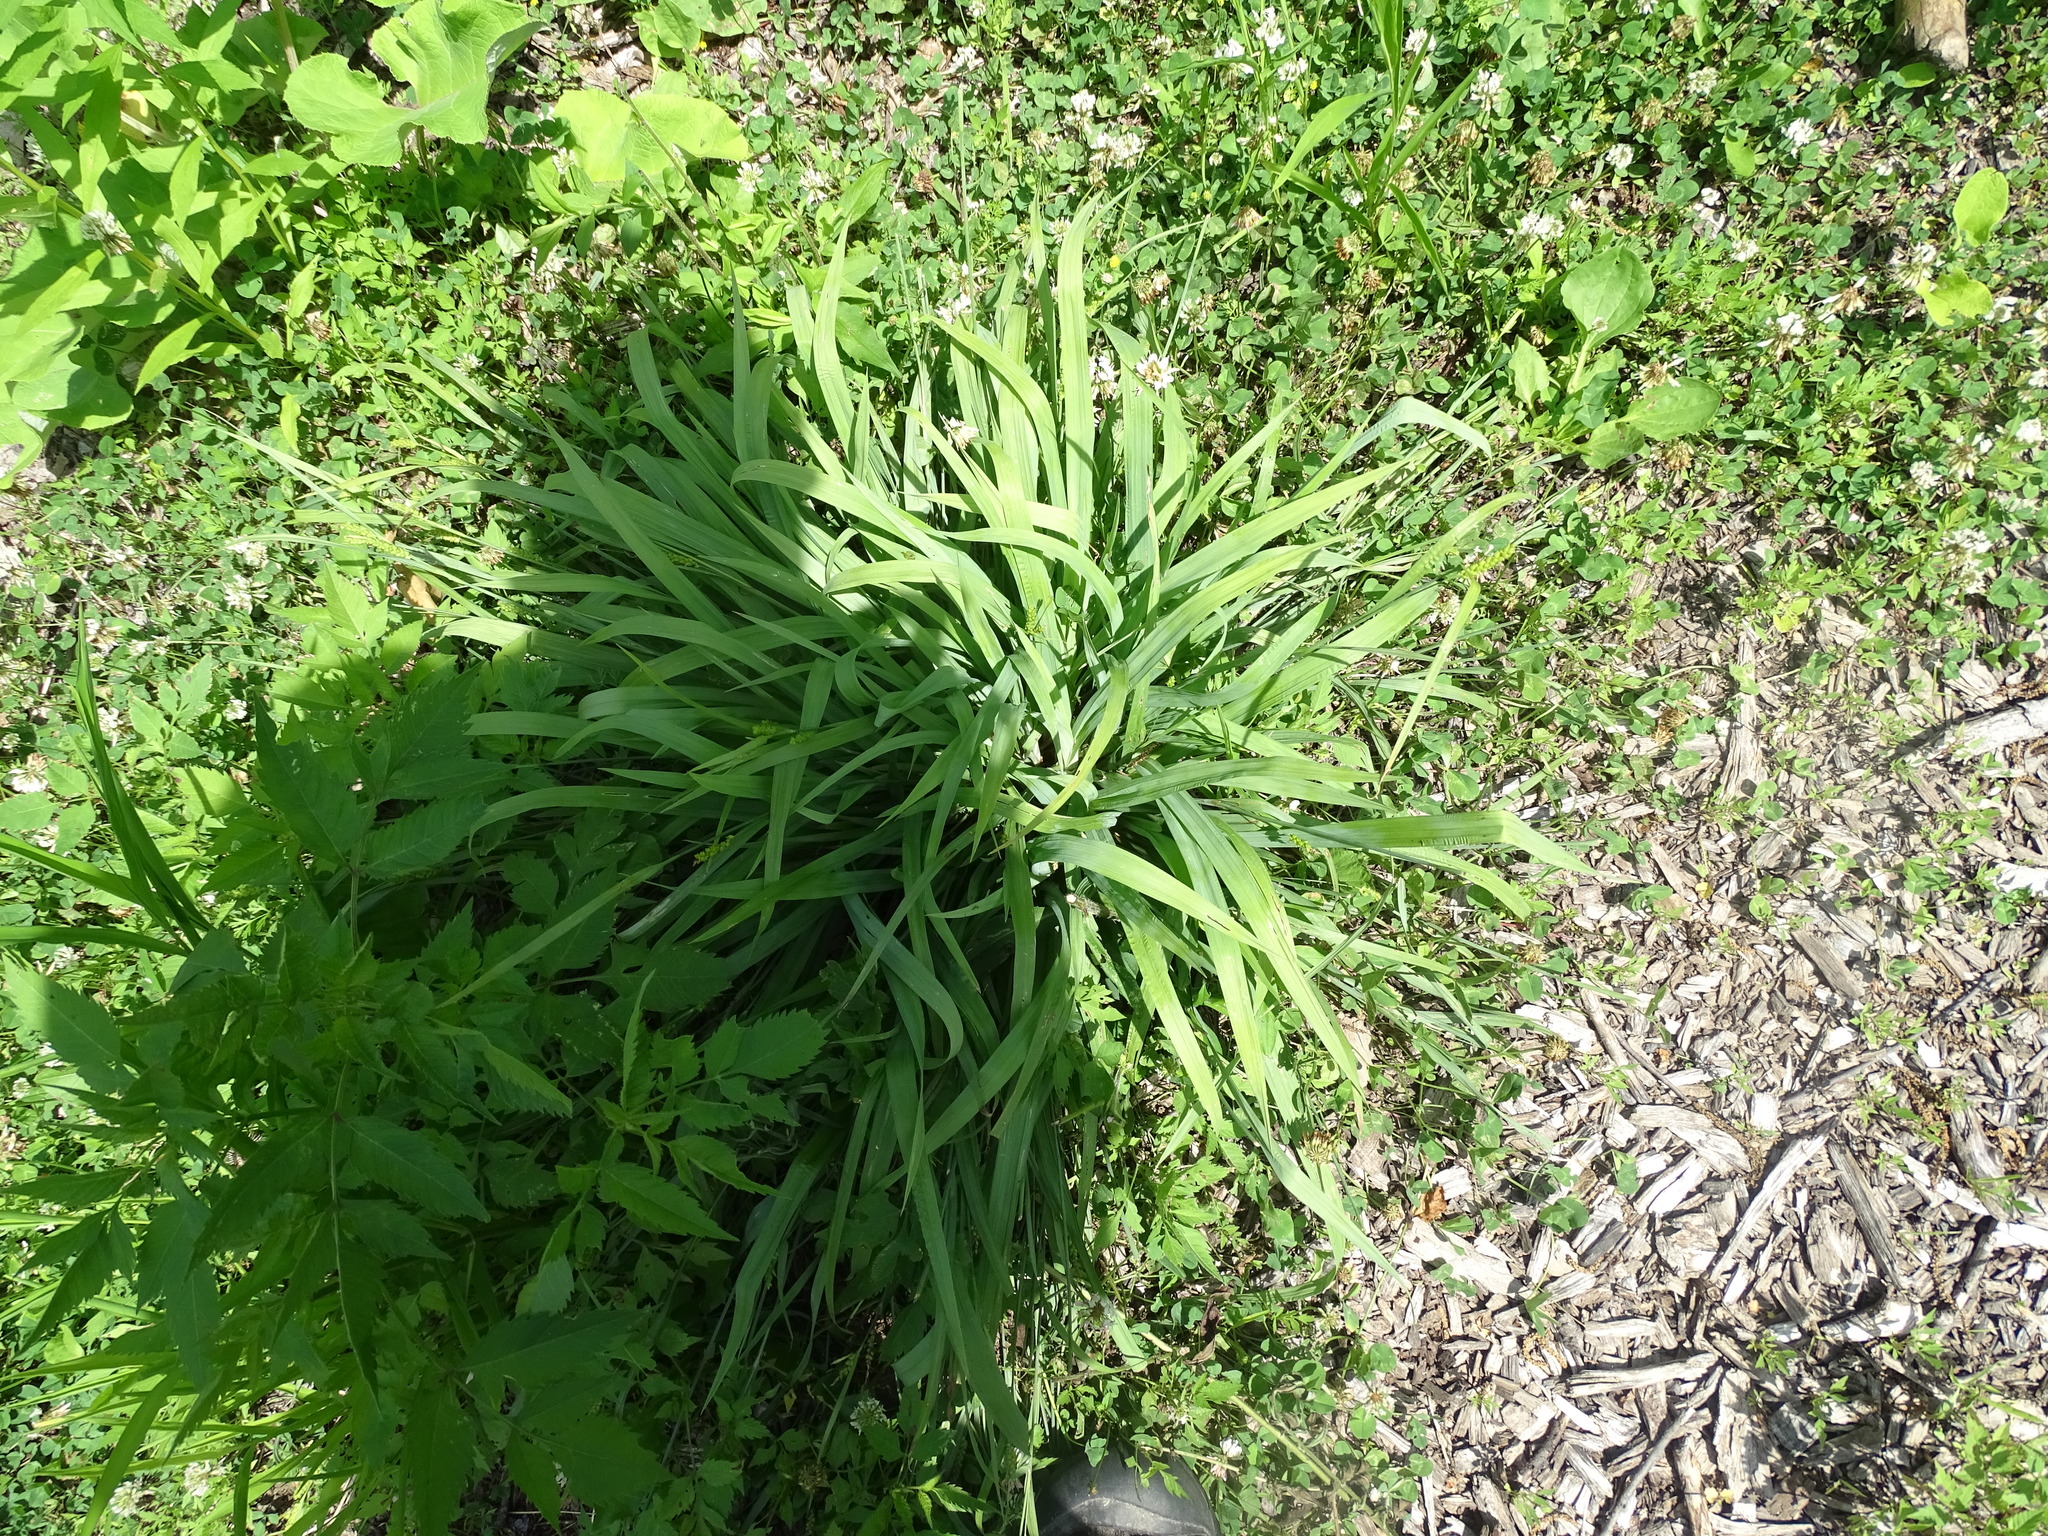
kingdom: Plantae
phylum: Tracheophyta
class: Liliopsida
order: Poales
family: Cyperaceae
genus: Carex
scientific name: Carex granularis
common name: Granular sedge
